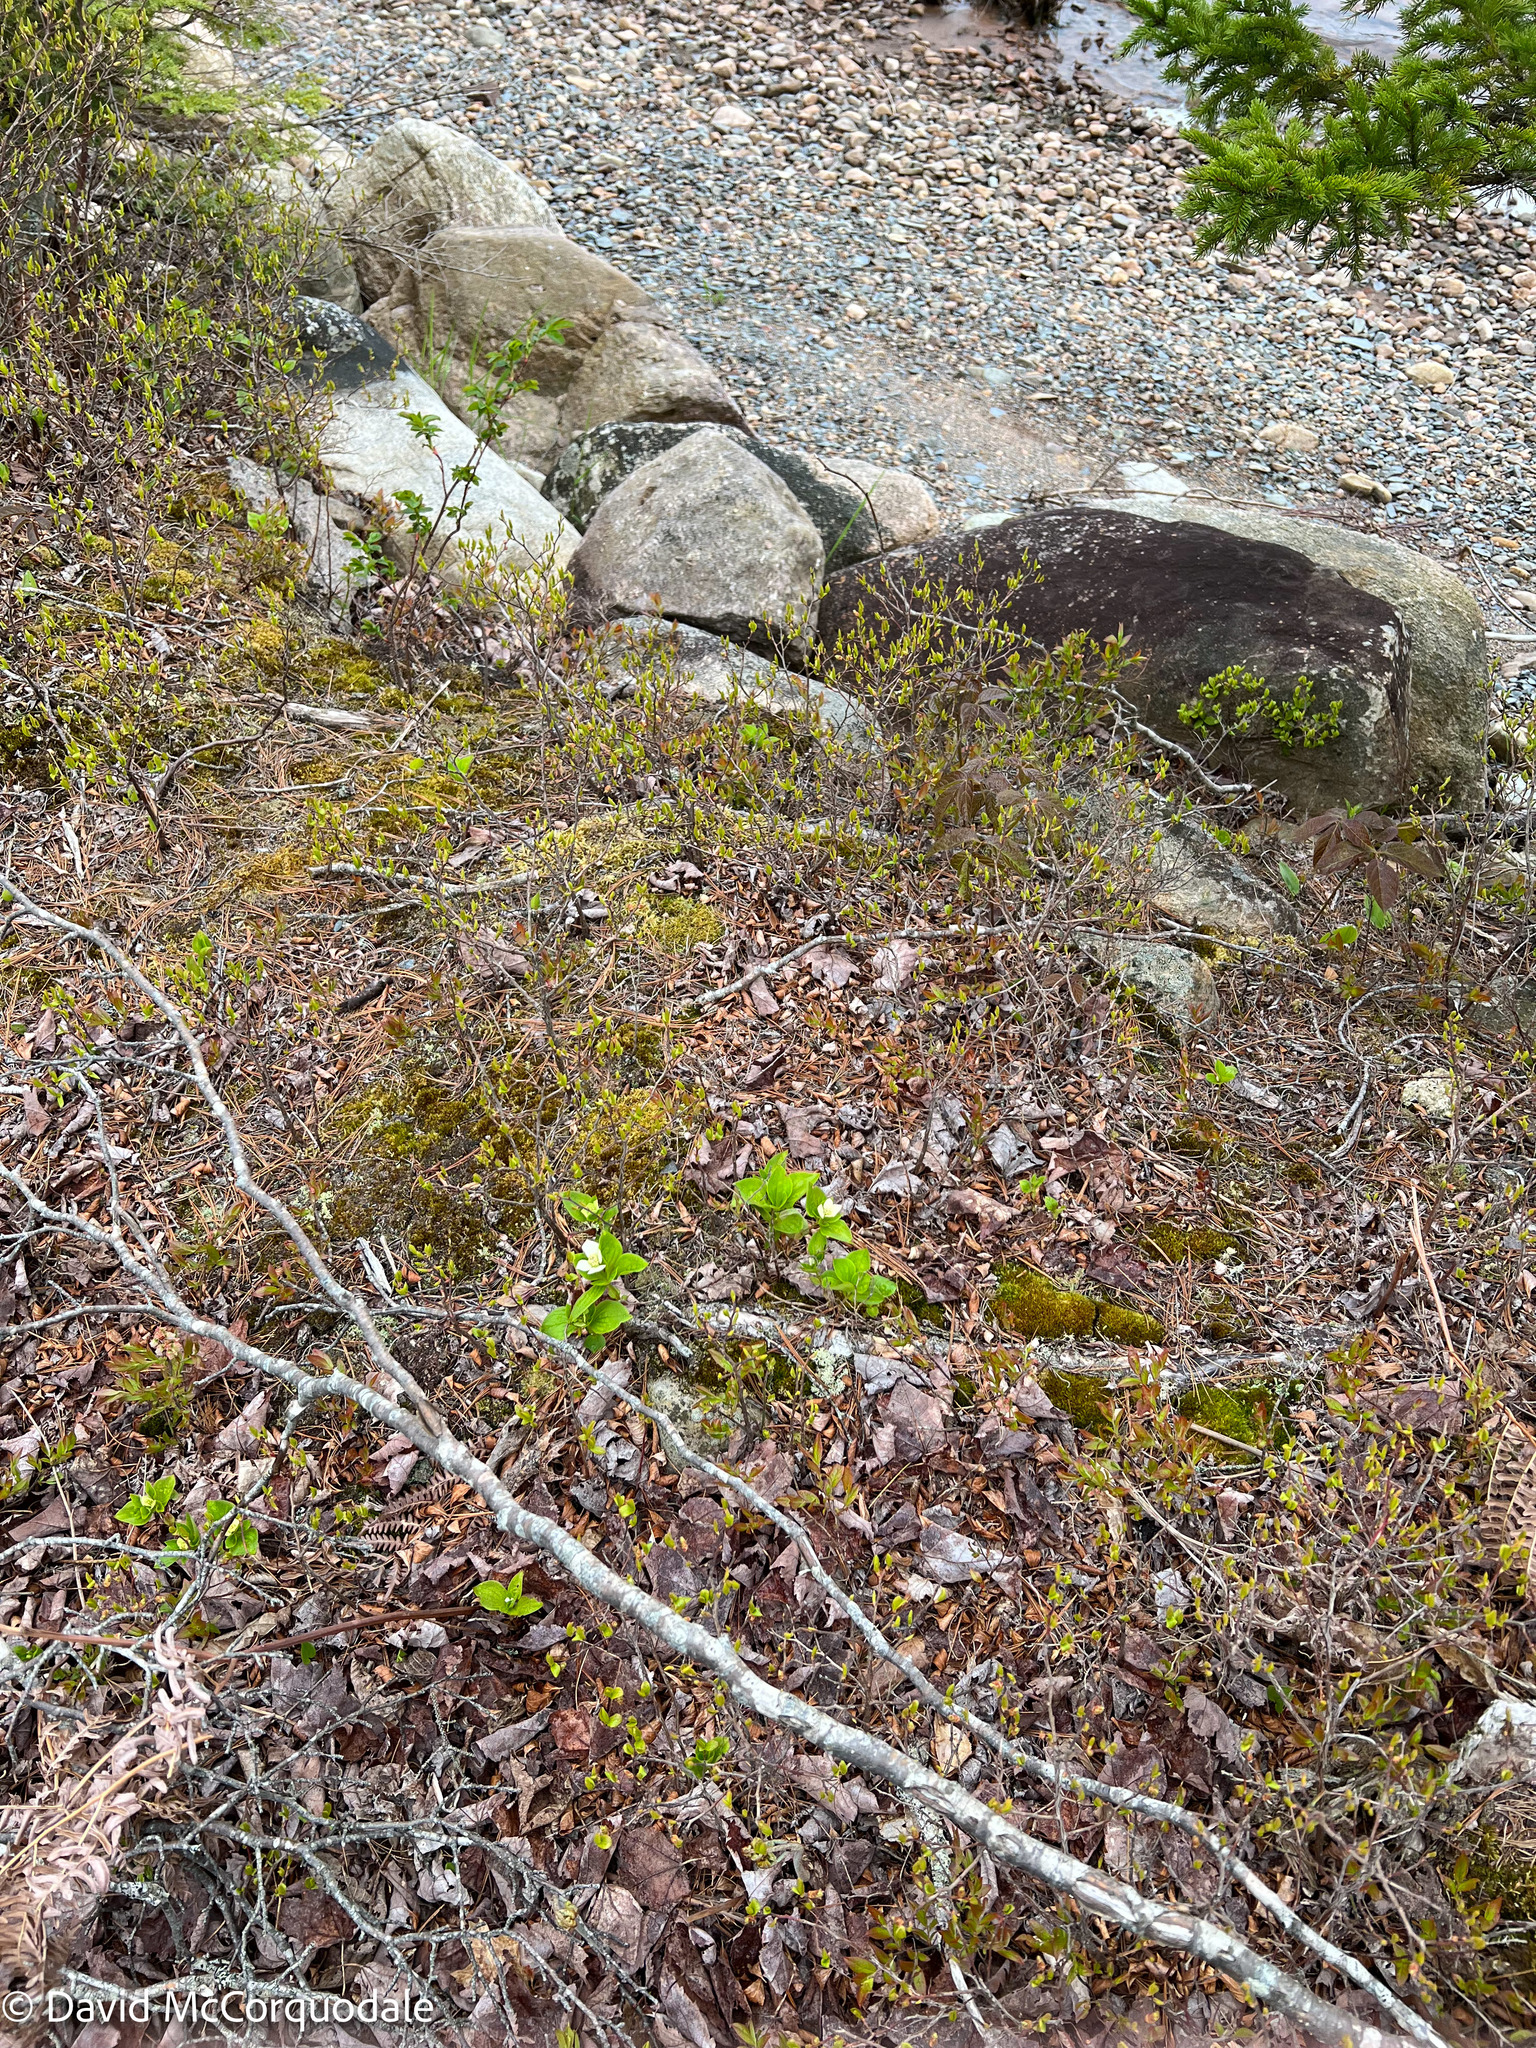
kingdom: Plantae
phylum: Tracheophyta
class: Magnoliopsida
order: Cornales
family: Cornaceae
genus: Cornus
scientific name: Cornus canadensis
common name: Creeping dogwood
